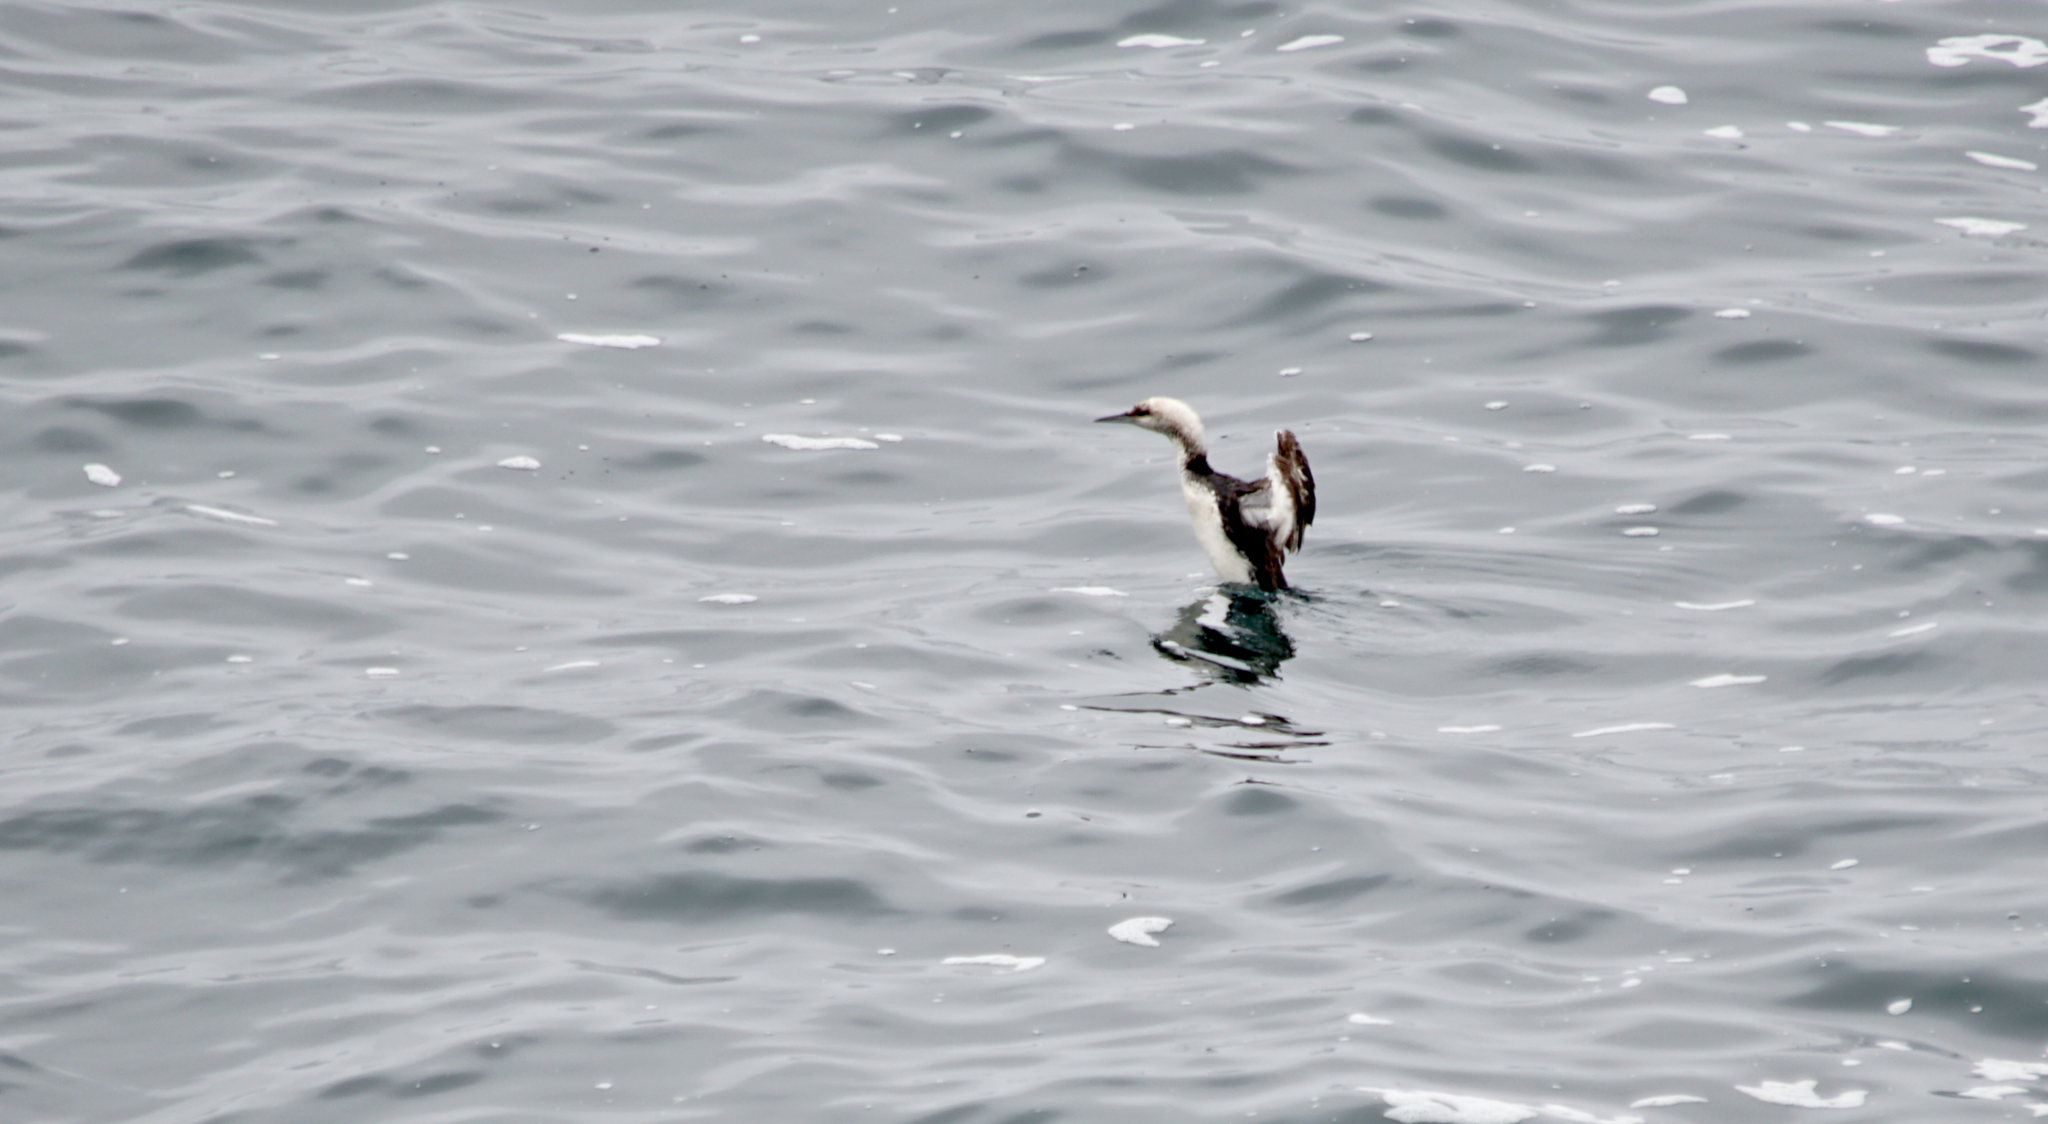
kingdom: Animalia
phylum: Chordata
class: Aves
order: Gaviiformes
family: Gaviidae
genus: Gavia
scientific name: Gavia pacifica
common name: Pacific loon
